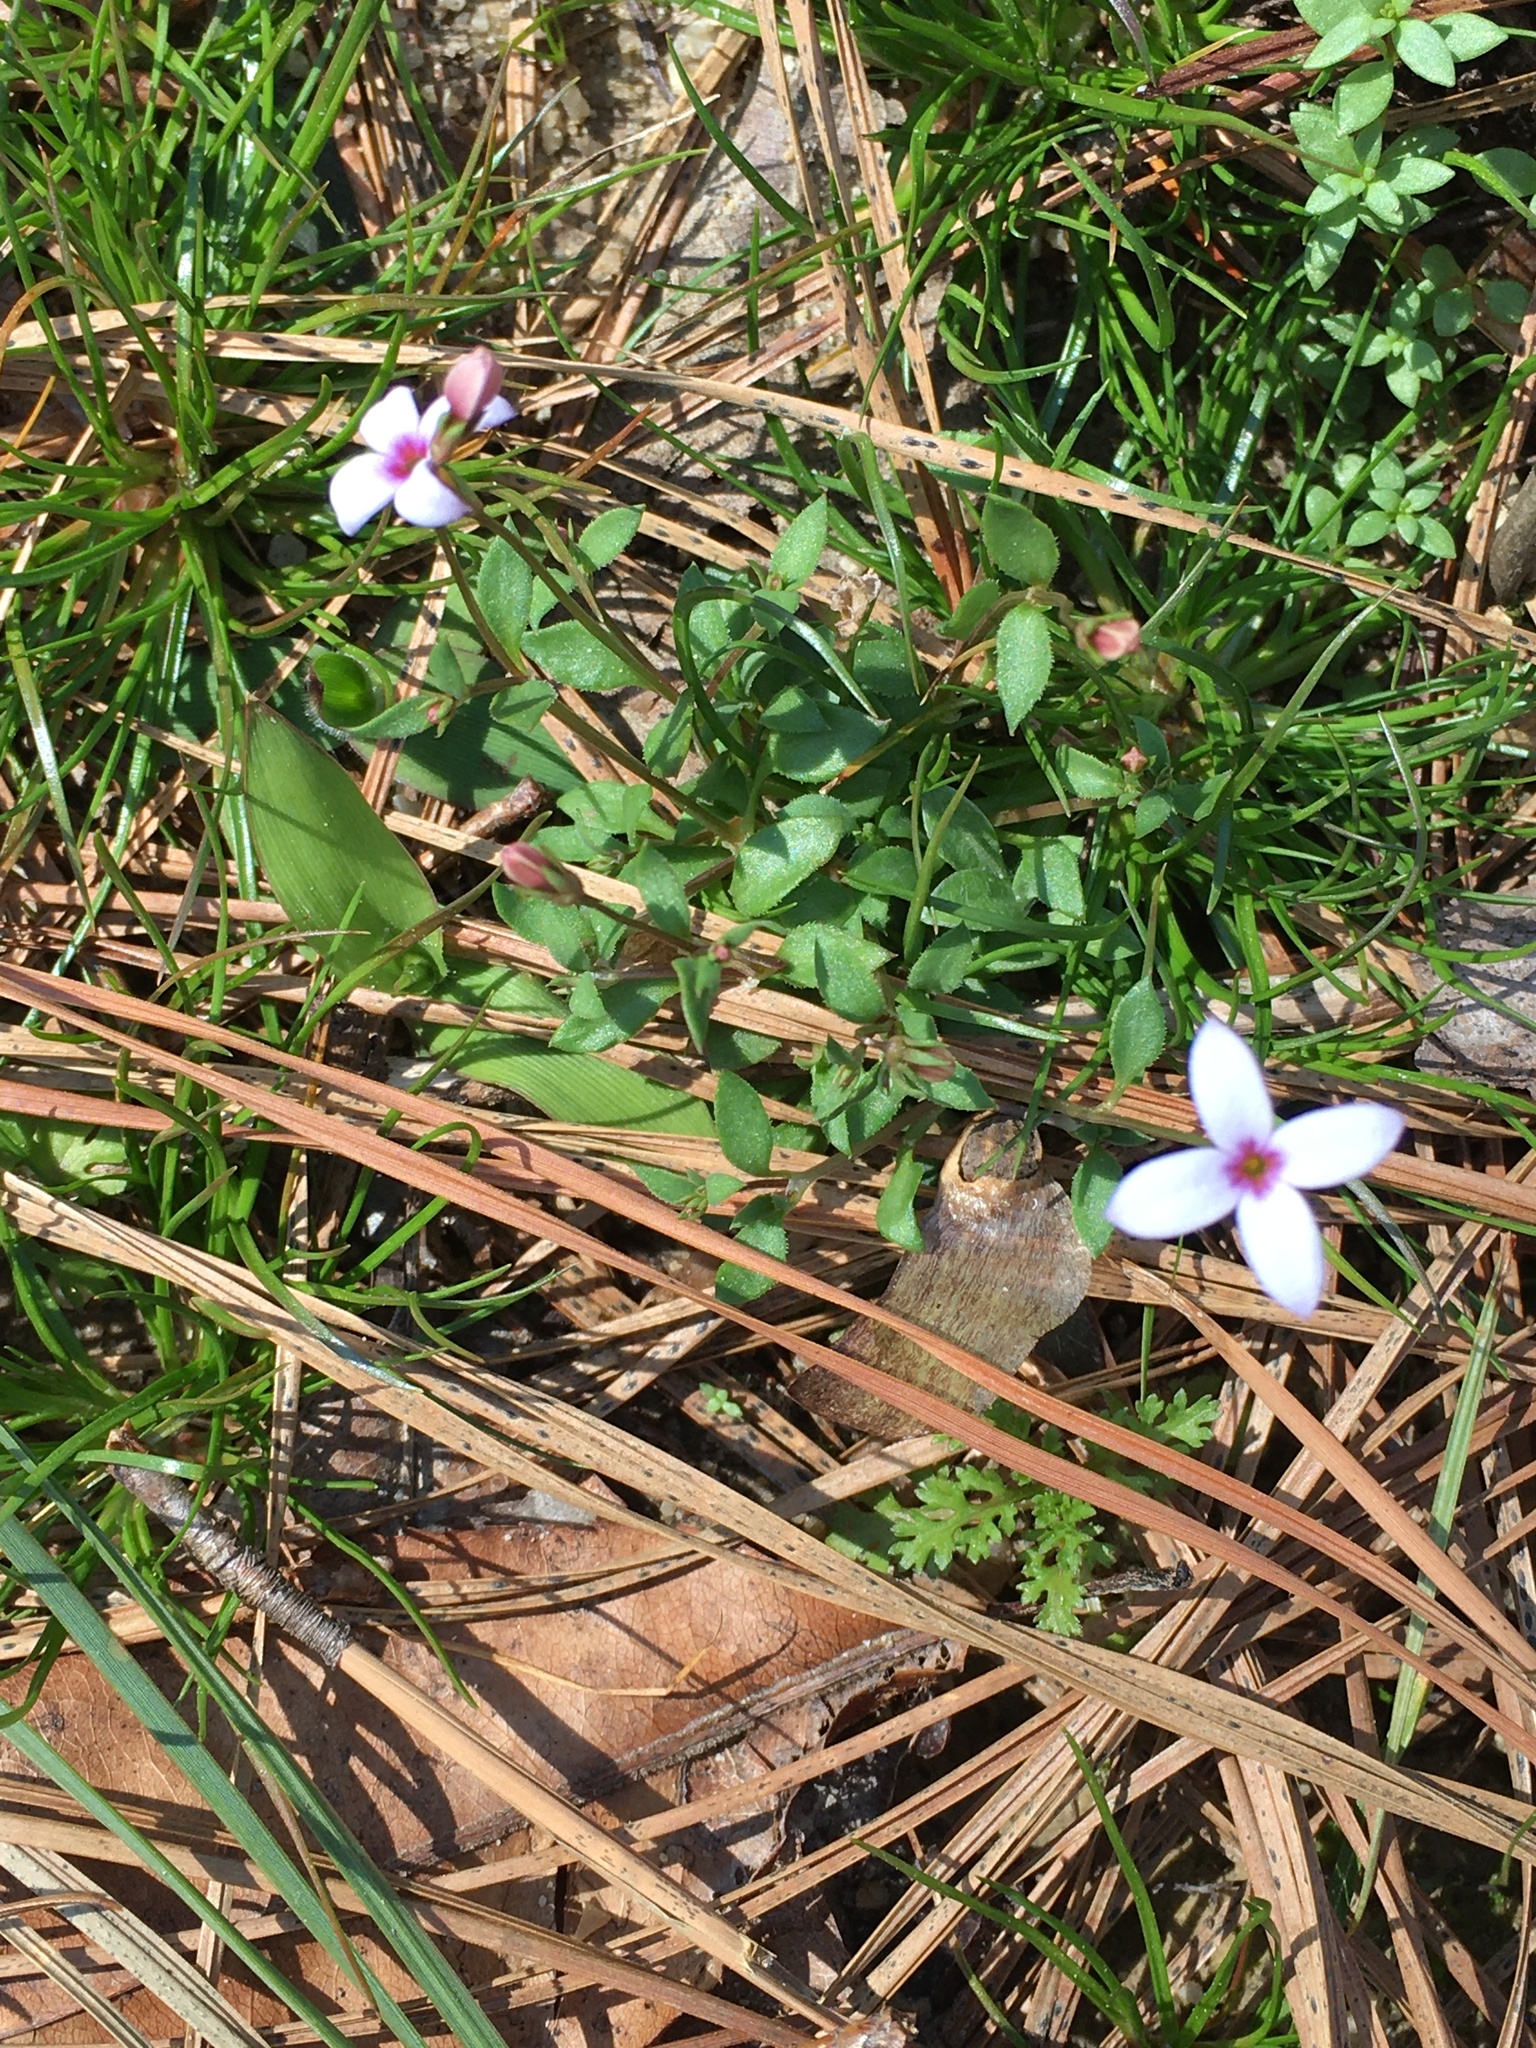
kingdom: Plantae
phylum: Tracheophyta
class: Magnoliopsida
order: Gentianales
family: Rubiaceae
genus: Houstonia
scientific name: Houstonia pusilla
